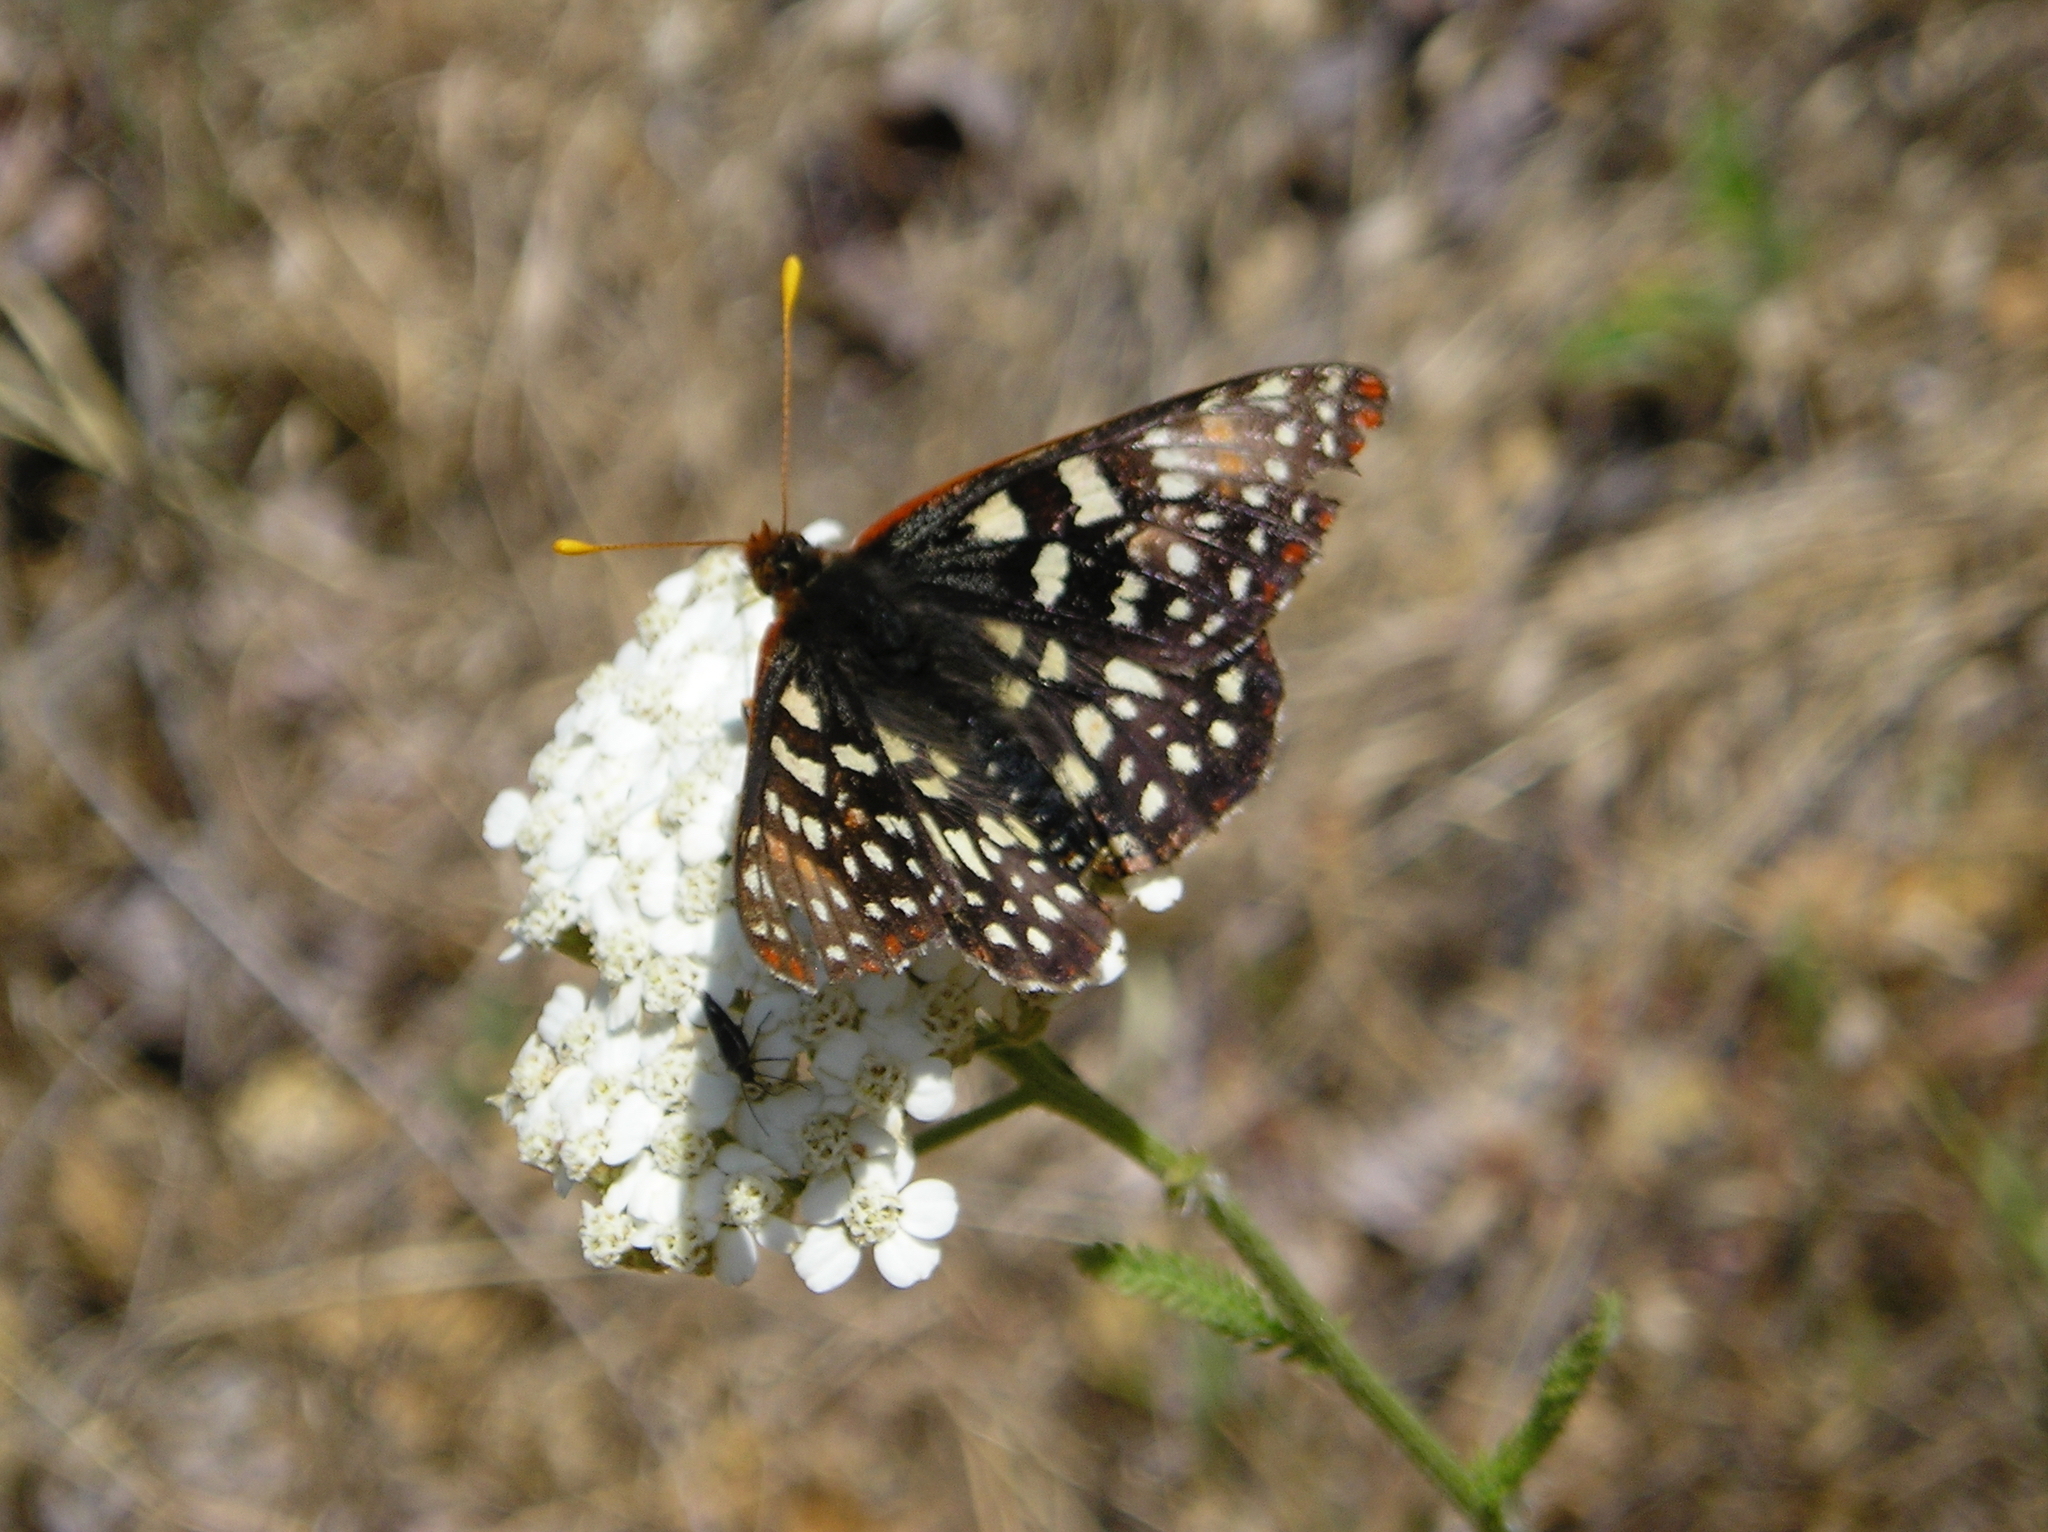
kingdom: Animalia
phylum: Arthropoda
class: Insecta
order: Lepidoptera
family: Nymphalidae
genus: Occidryas
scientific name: Occidryas chalcedona
